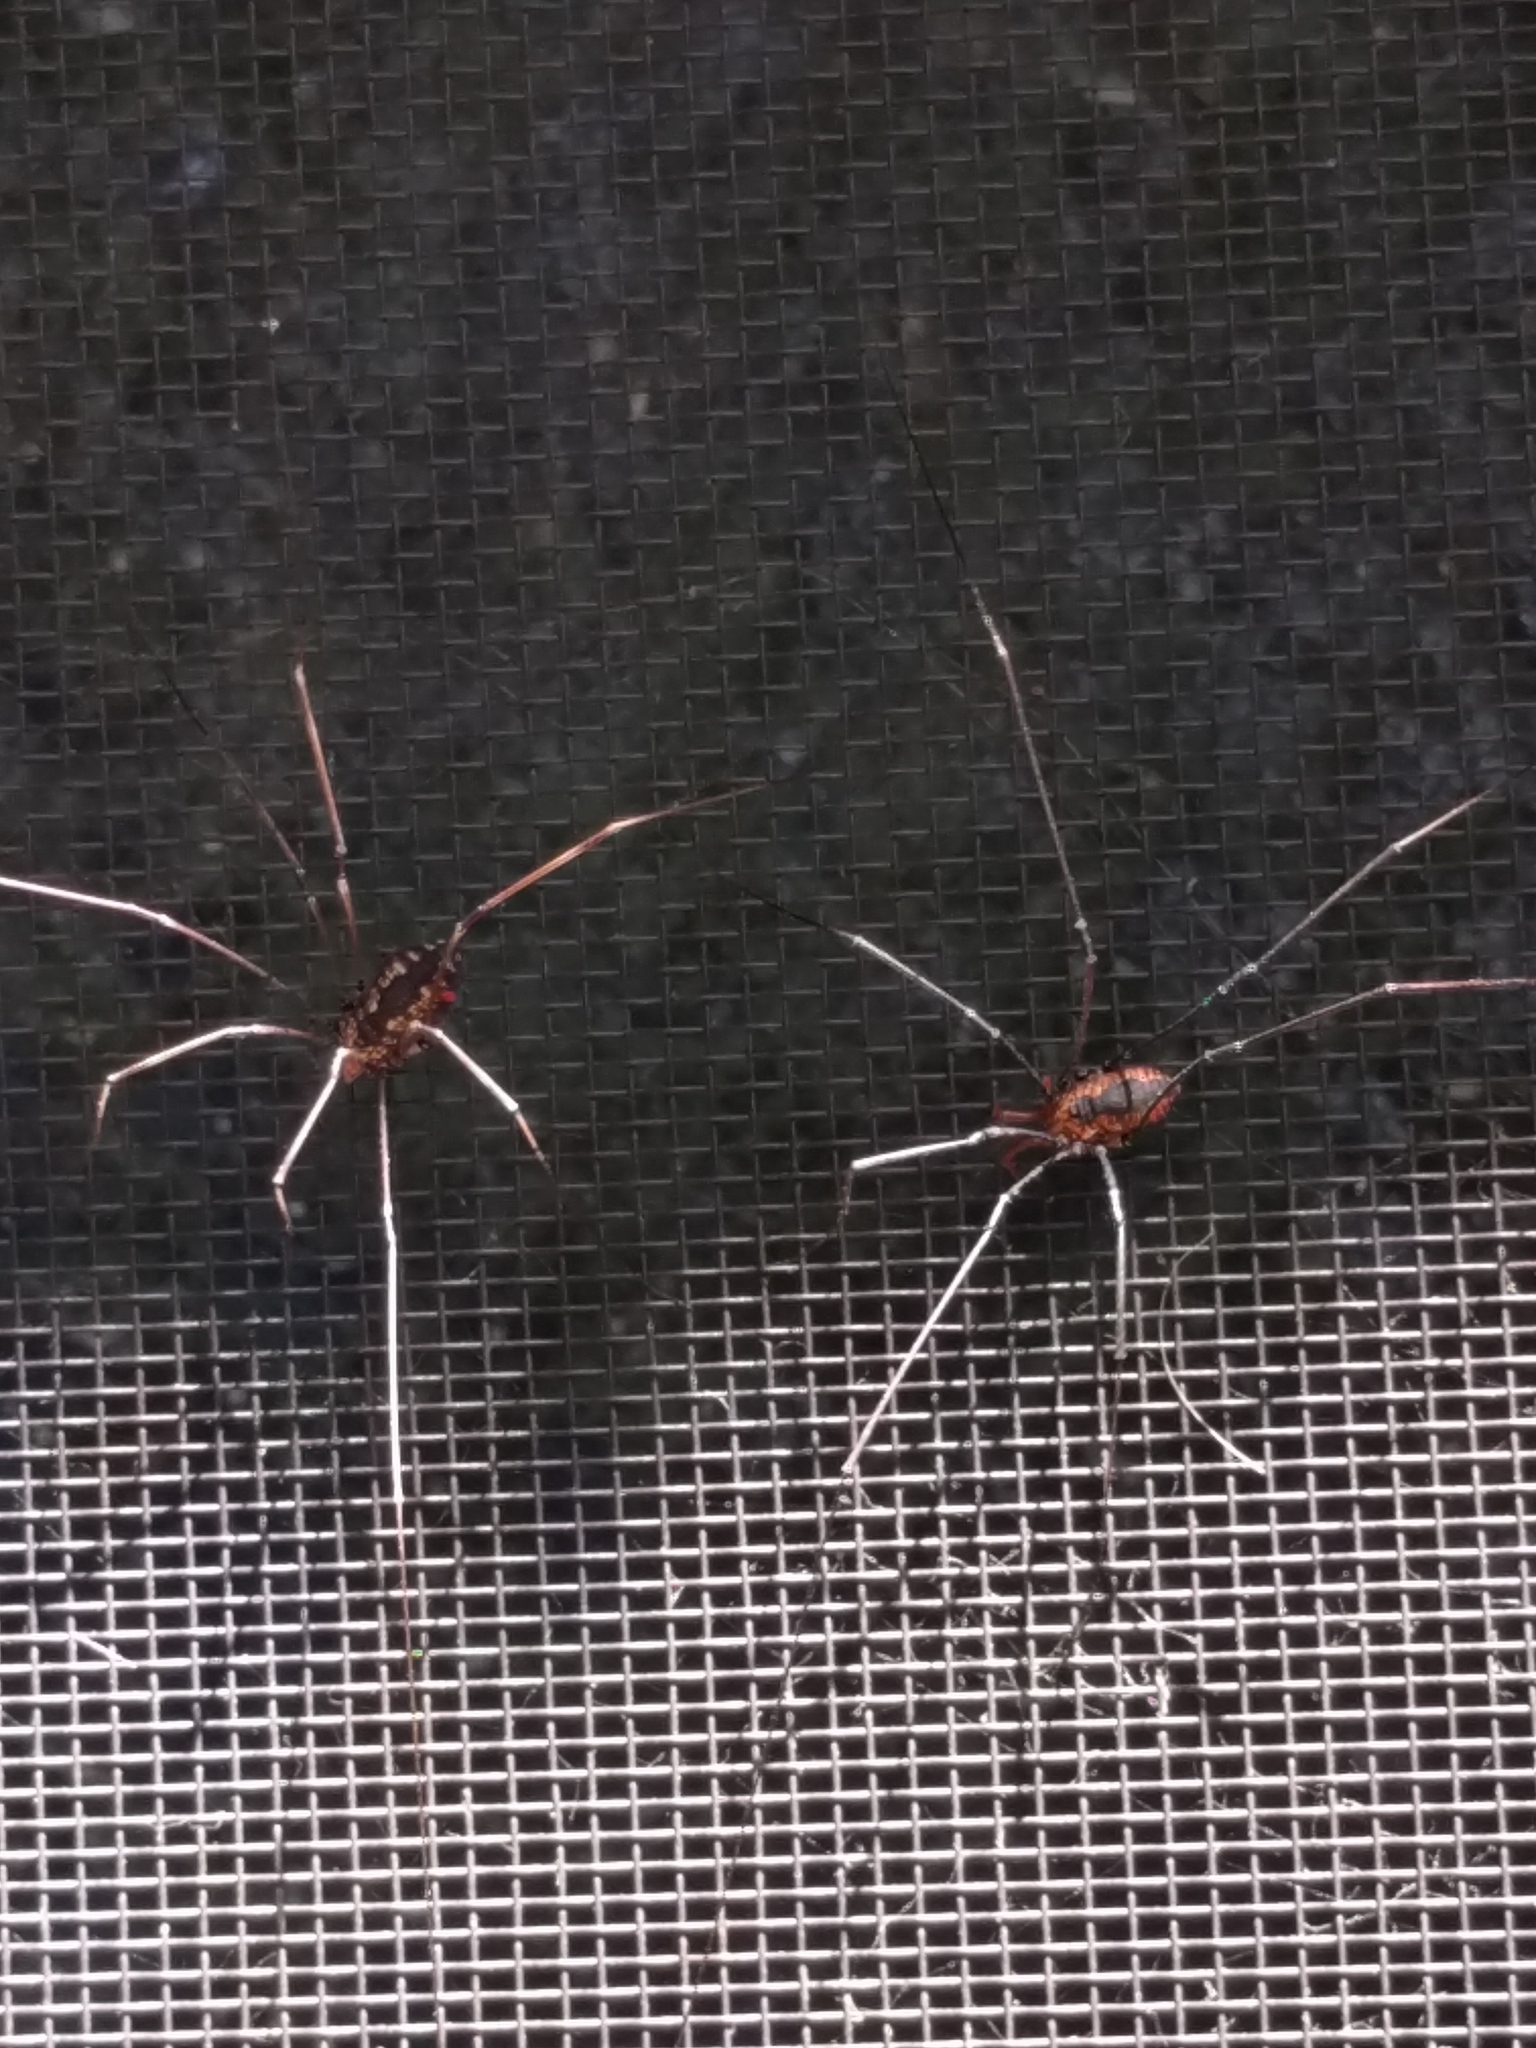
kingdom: Animalia
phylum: Arthropoda
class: Arachnida
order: Opiliones
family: Sclerosomatidae
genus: Leiobunum
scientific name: Leiobunum vittatum
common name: Eastern harvestman
